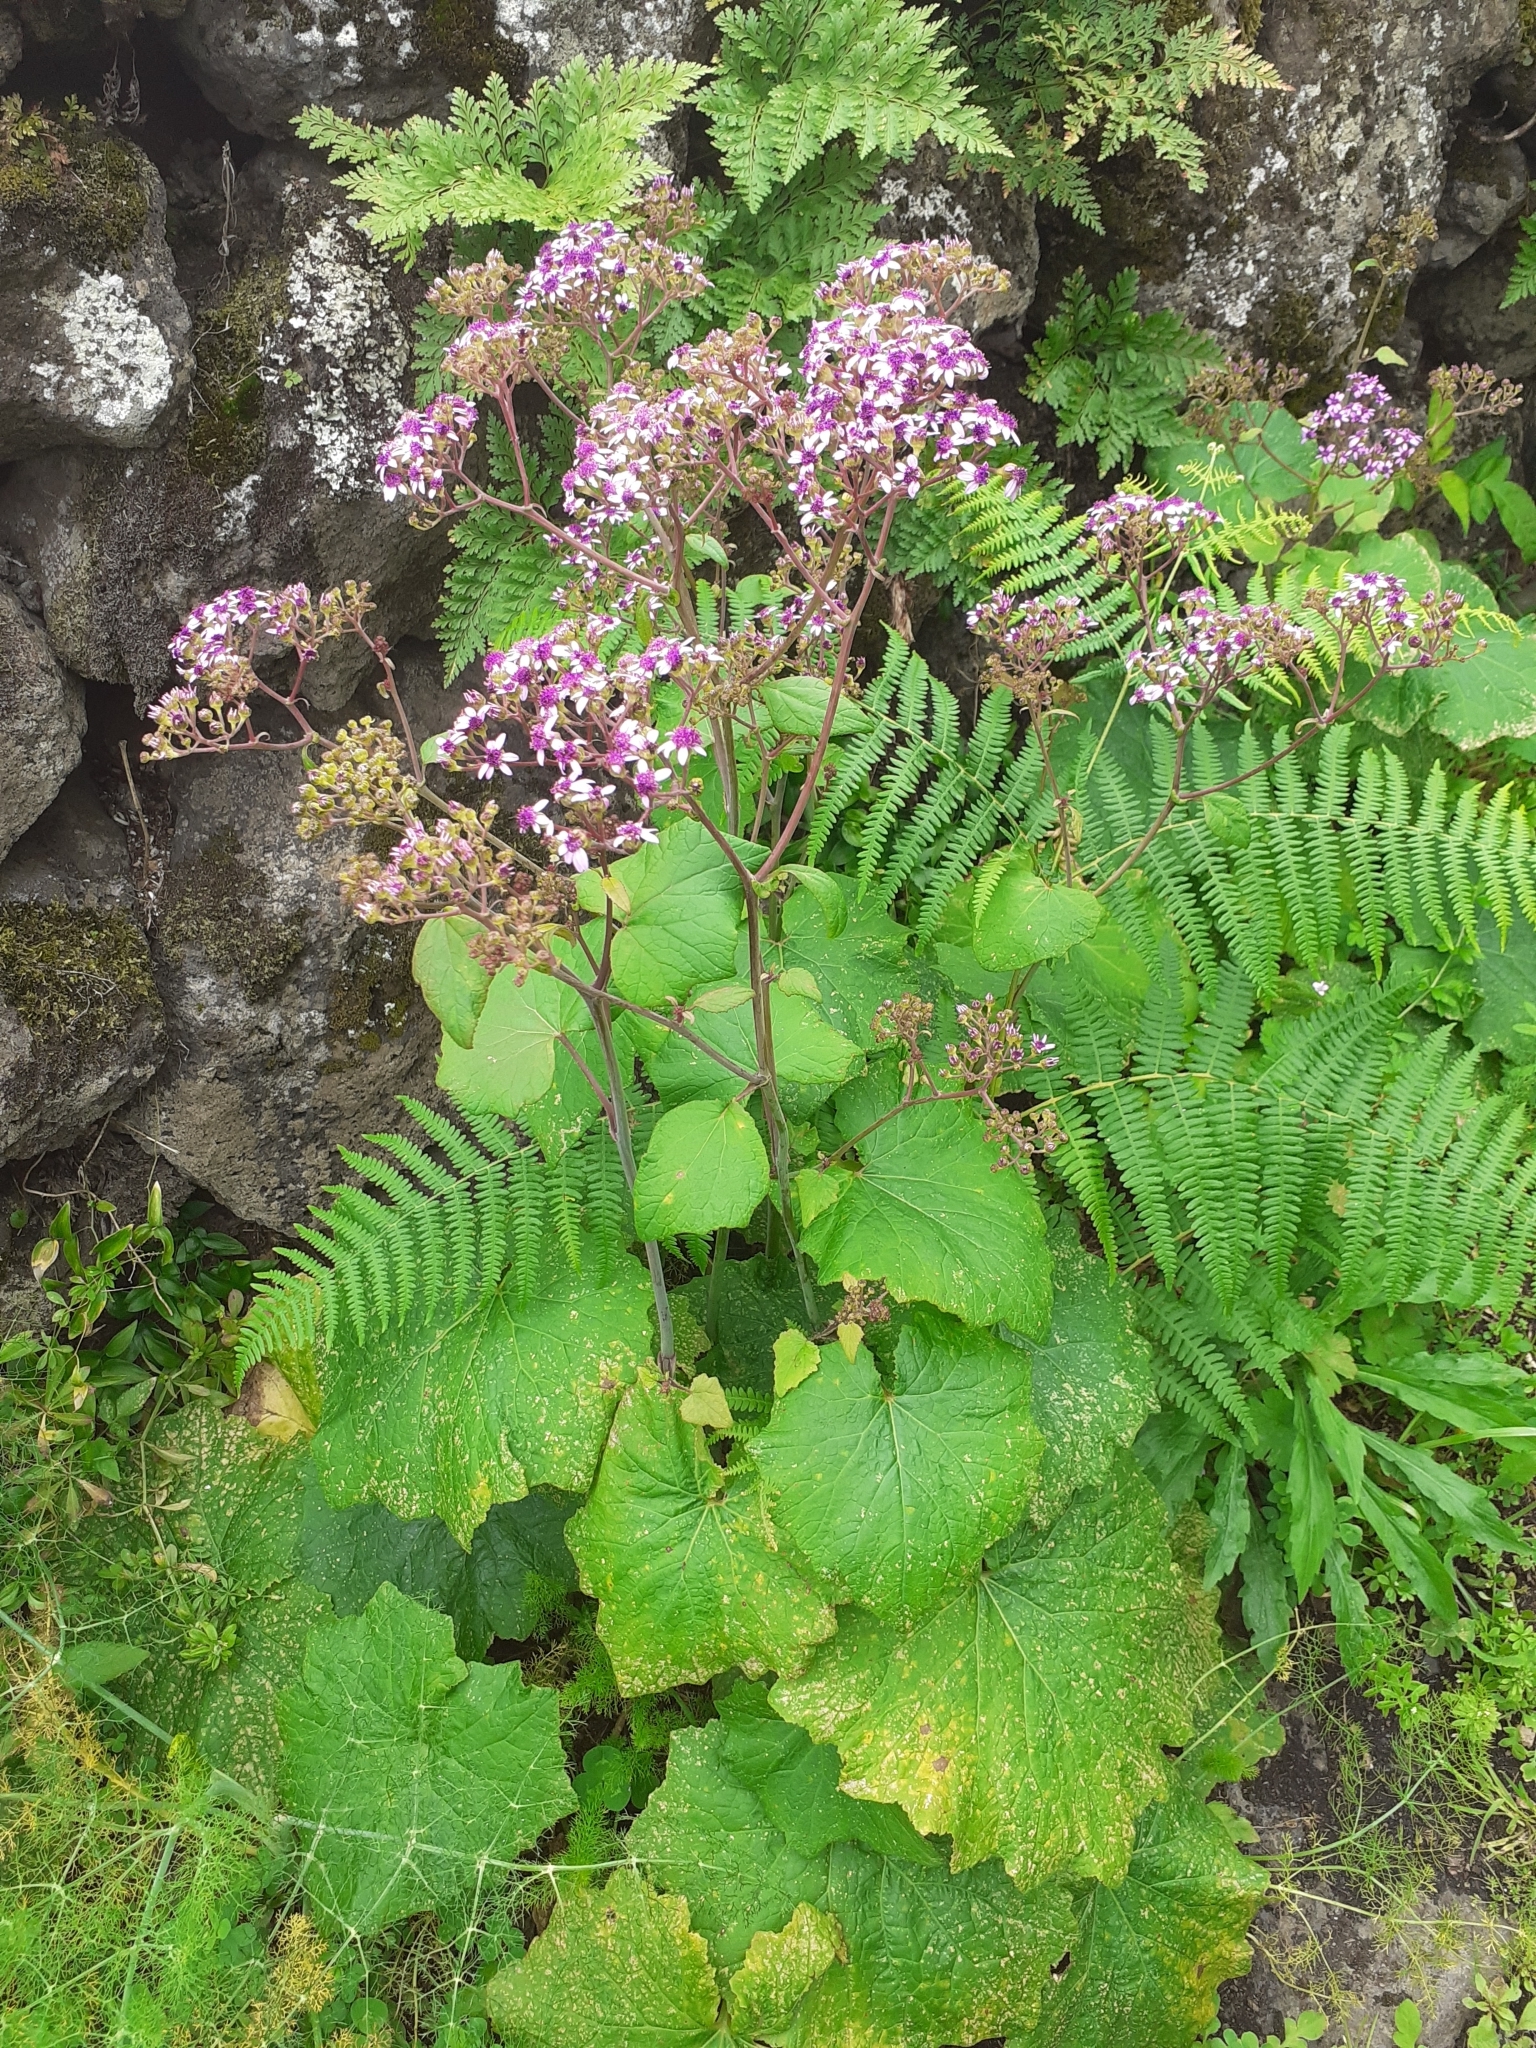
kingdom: Plantae
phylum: Tracheophyta
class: Magnoliopsida
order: Asterales
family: Asteraceae
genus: Pericallis
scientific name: Pericallis papyracea
